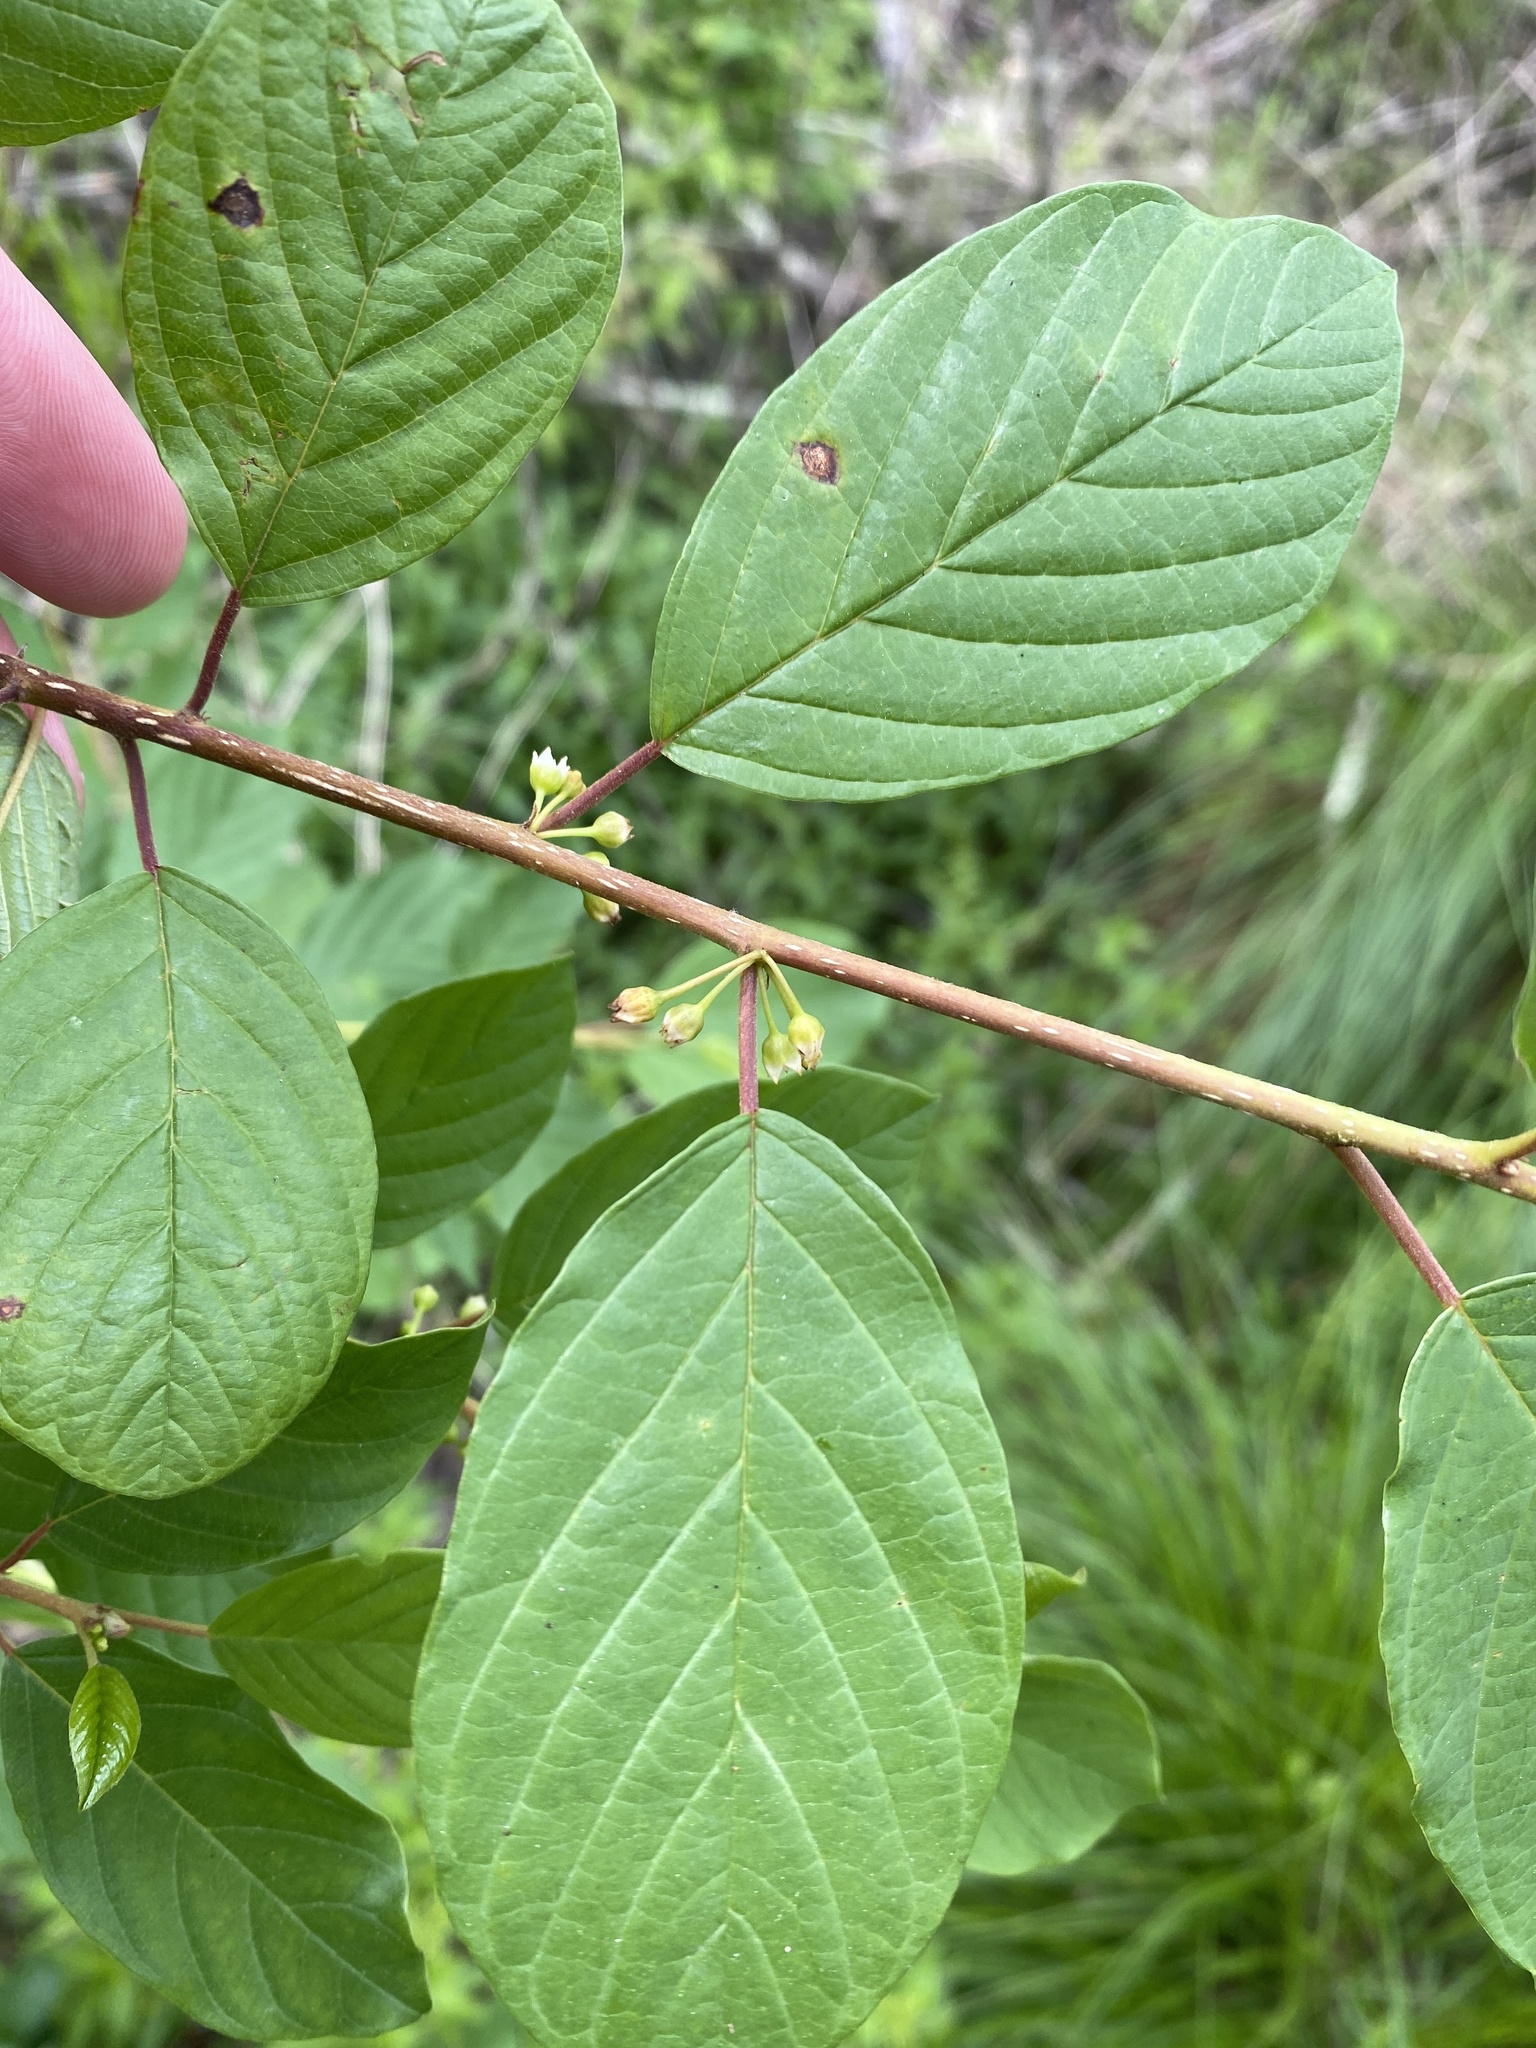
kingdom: Plantae
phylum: Tracheophyta
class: Magnoliopsida
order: Rosales
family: Rhamnaceae
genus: Frangula
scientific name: Frangula alnus
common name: Alder buckthorn
